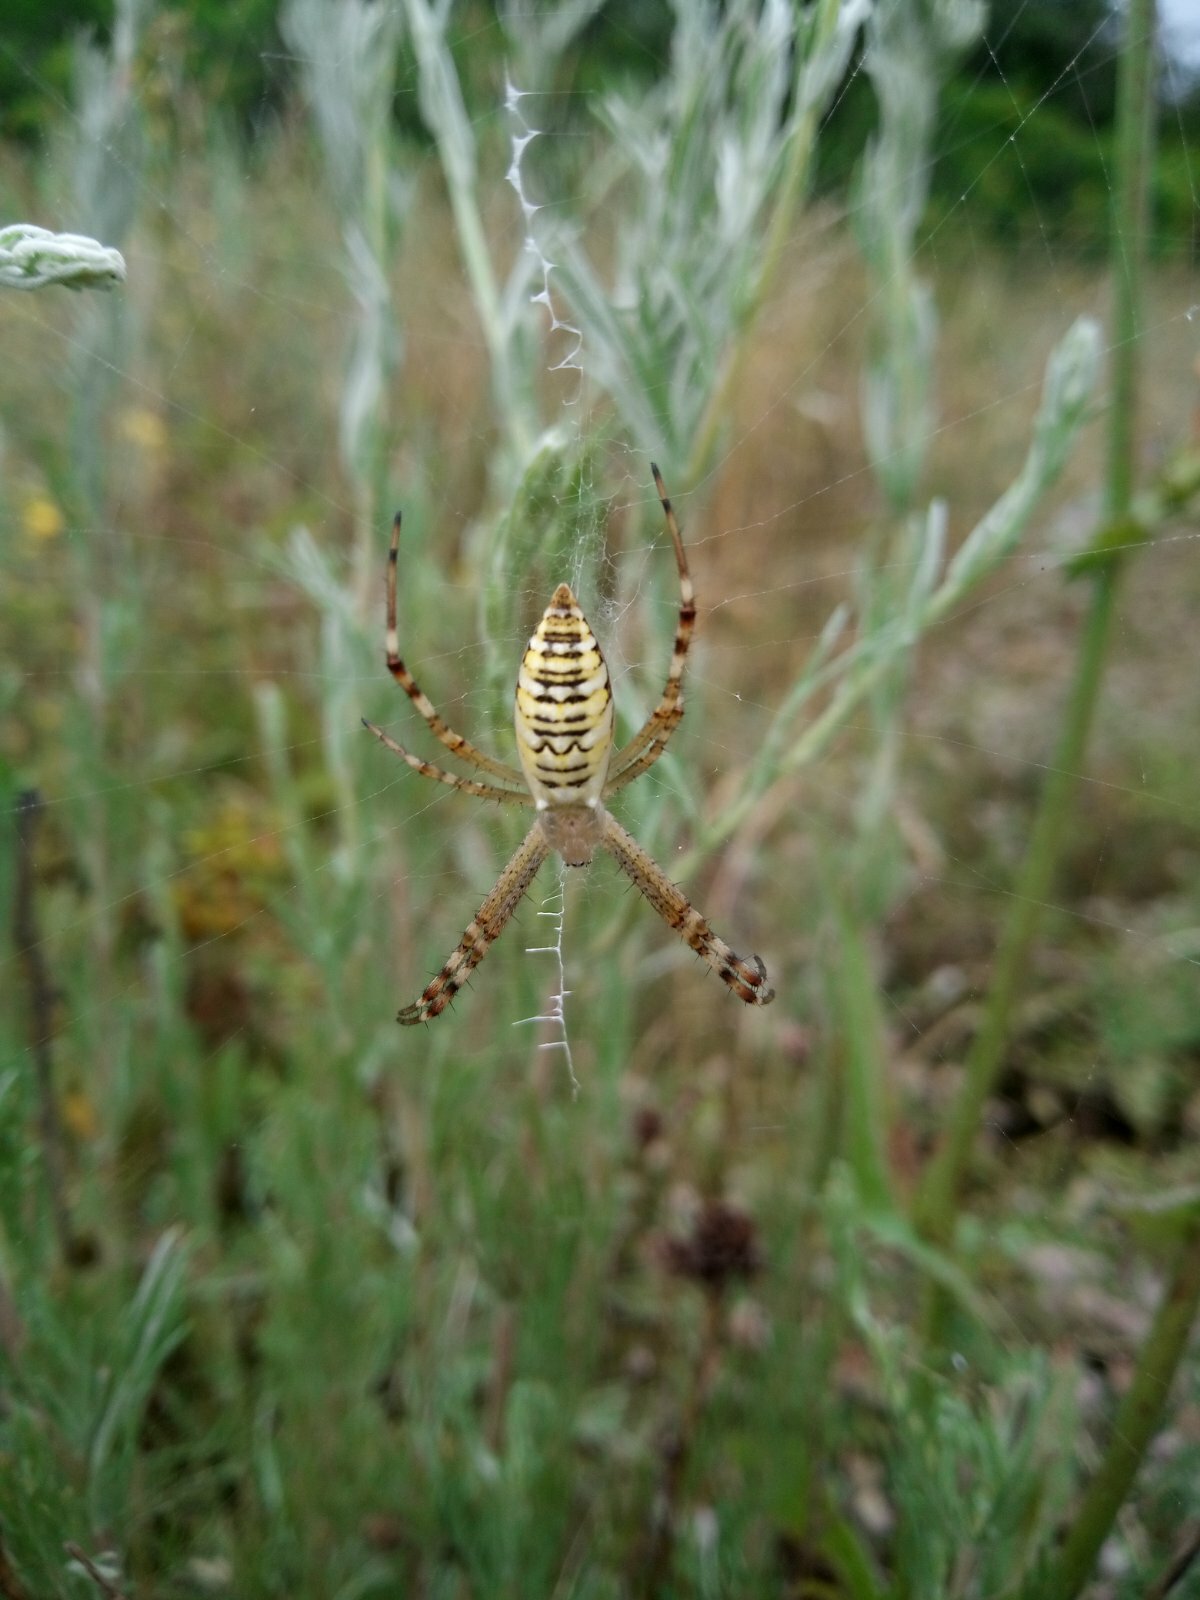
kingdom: Animalia
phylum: Arthropoda
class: Arachnida
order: Araneae
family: Araneidae
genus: Argiope
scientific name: Argiope bruennichi
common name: Wasp spider
